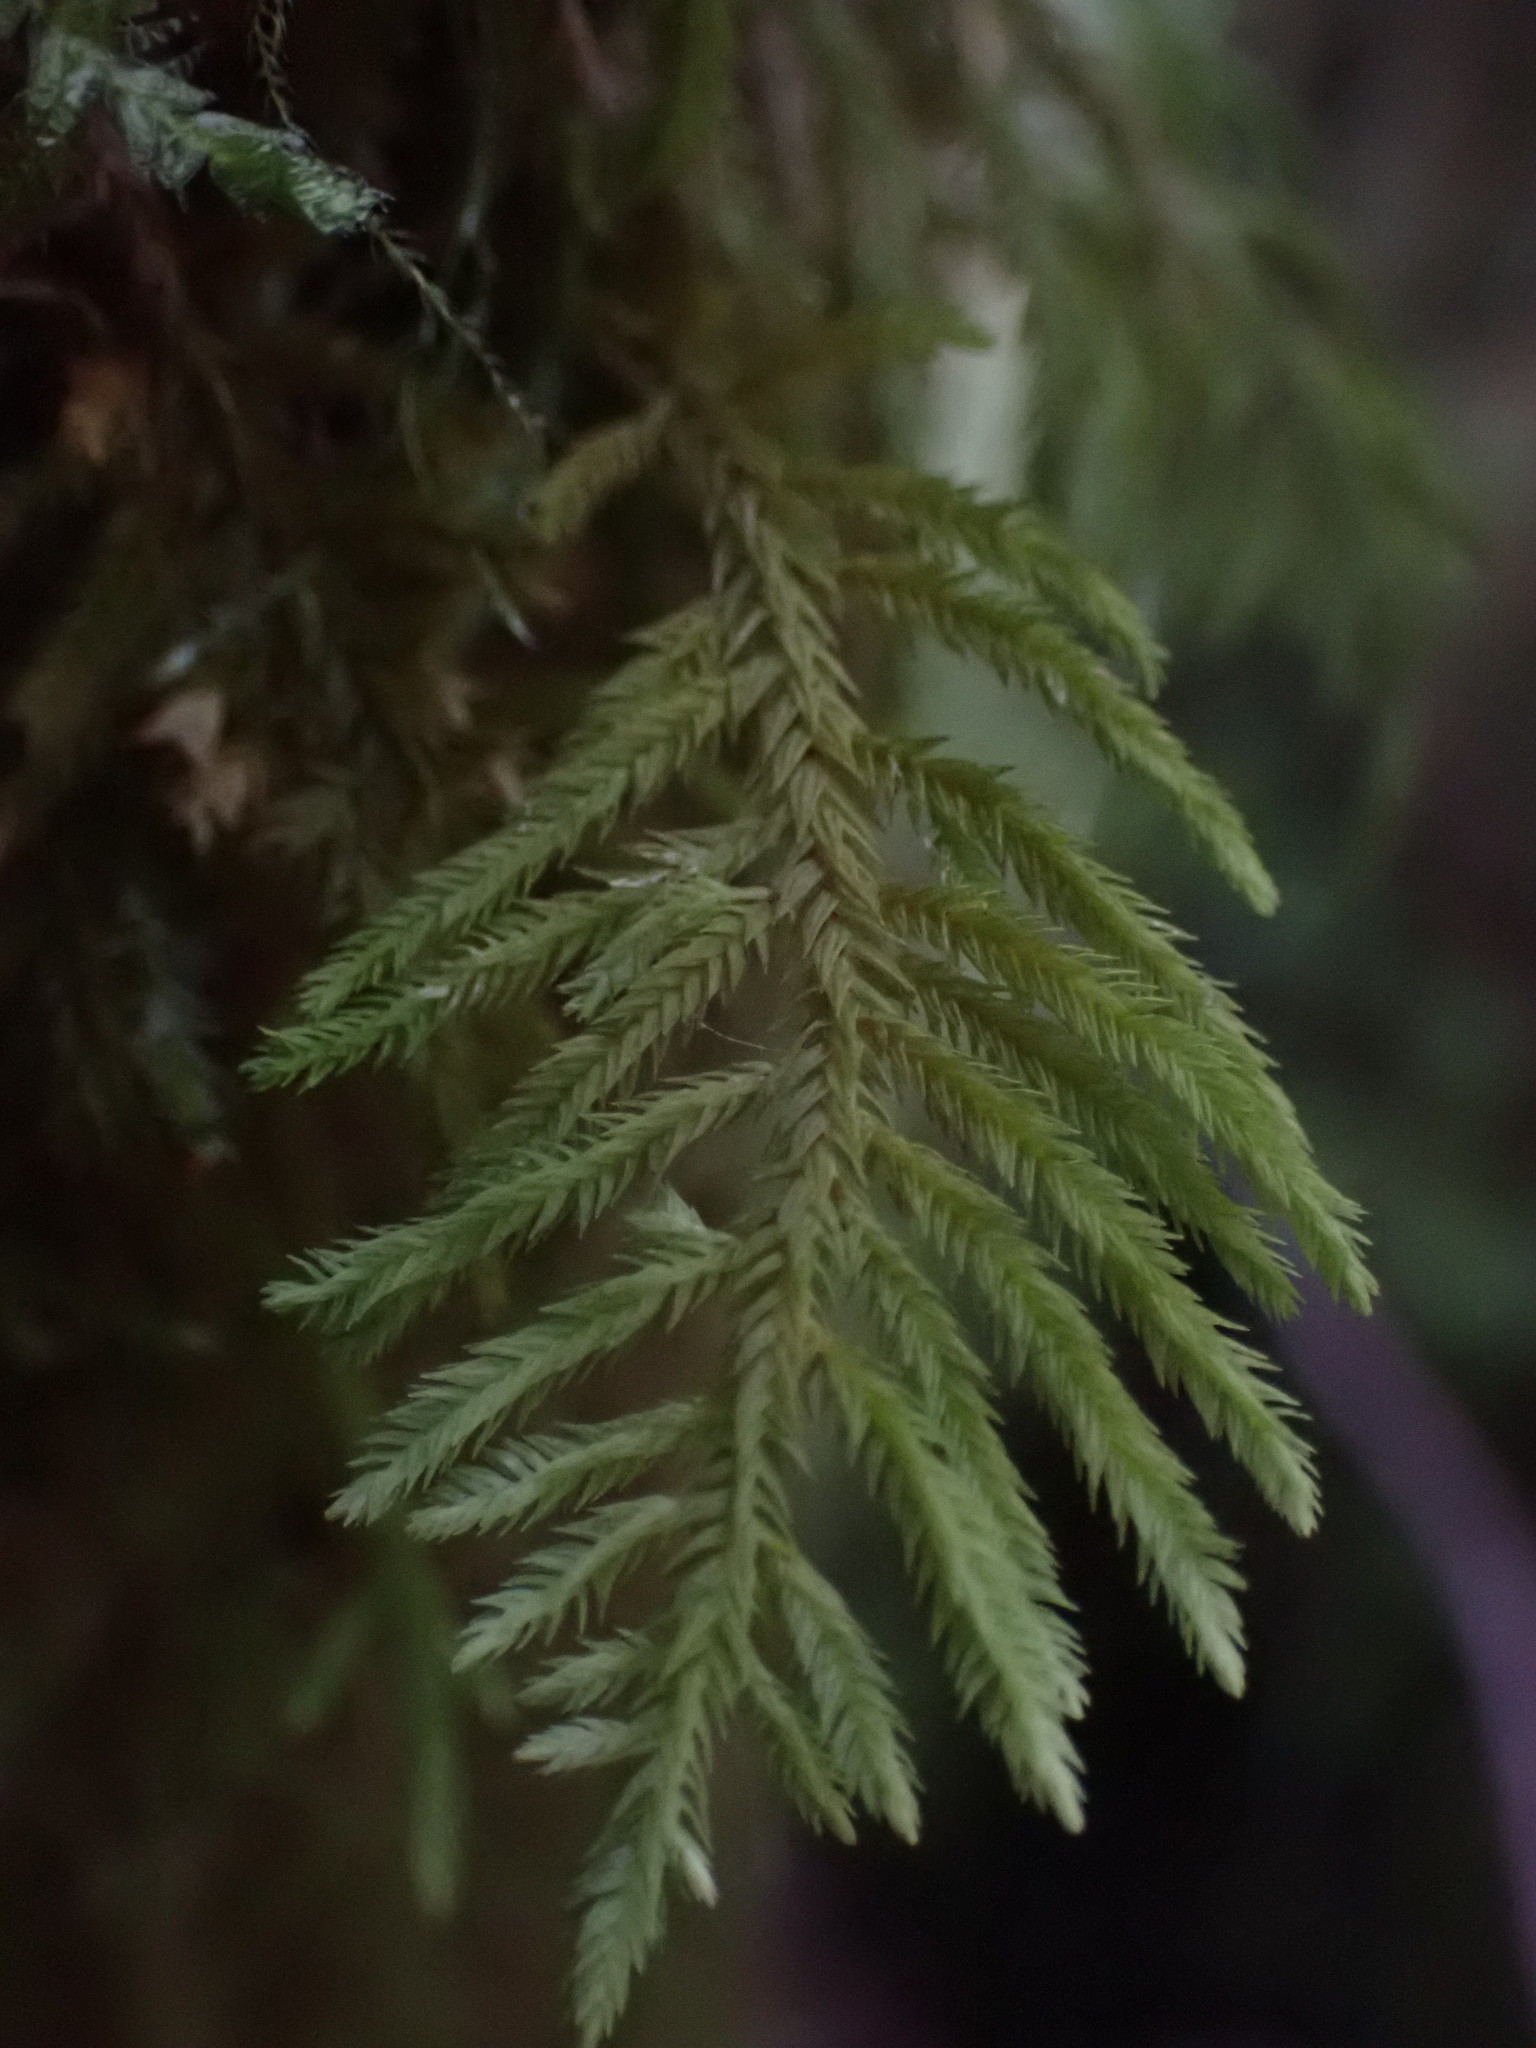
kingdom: Plantae
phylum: Bryophyta
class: Bryopsida
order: Hypnales
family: Cryphaeaceae
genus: Dendroalsia
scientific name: Dendroalsia abietina
